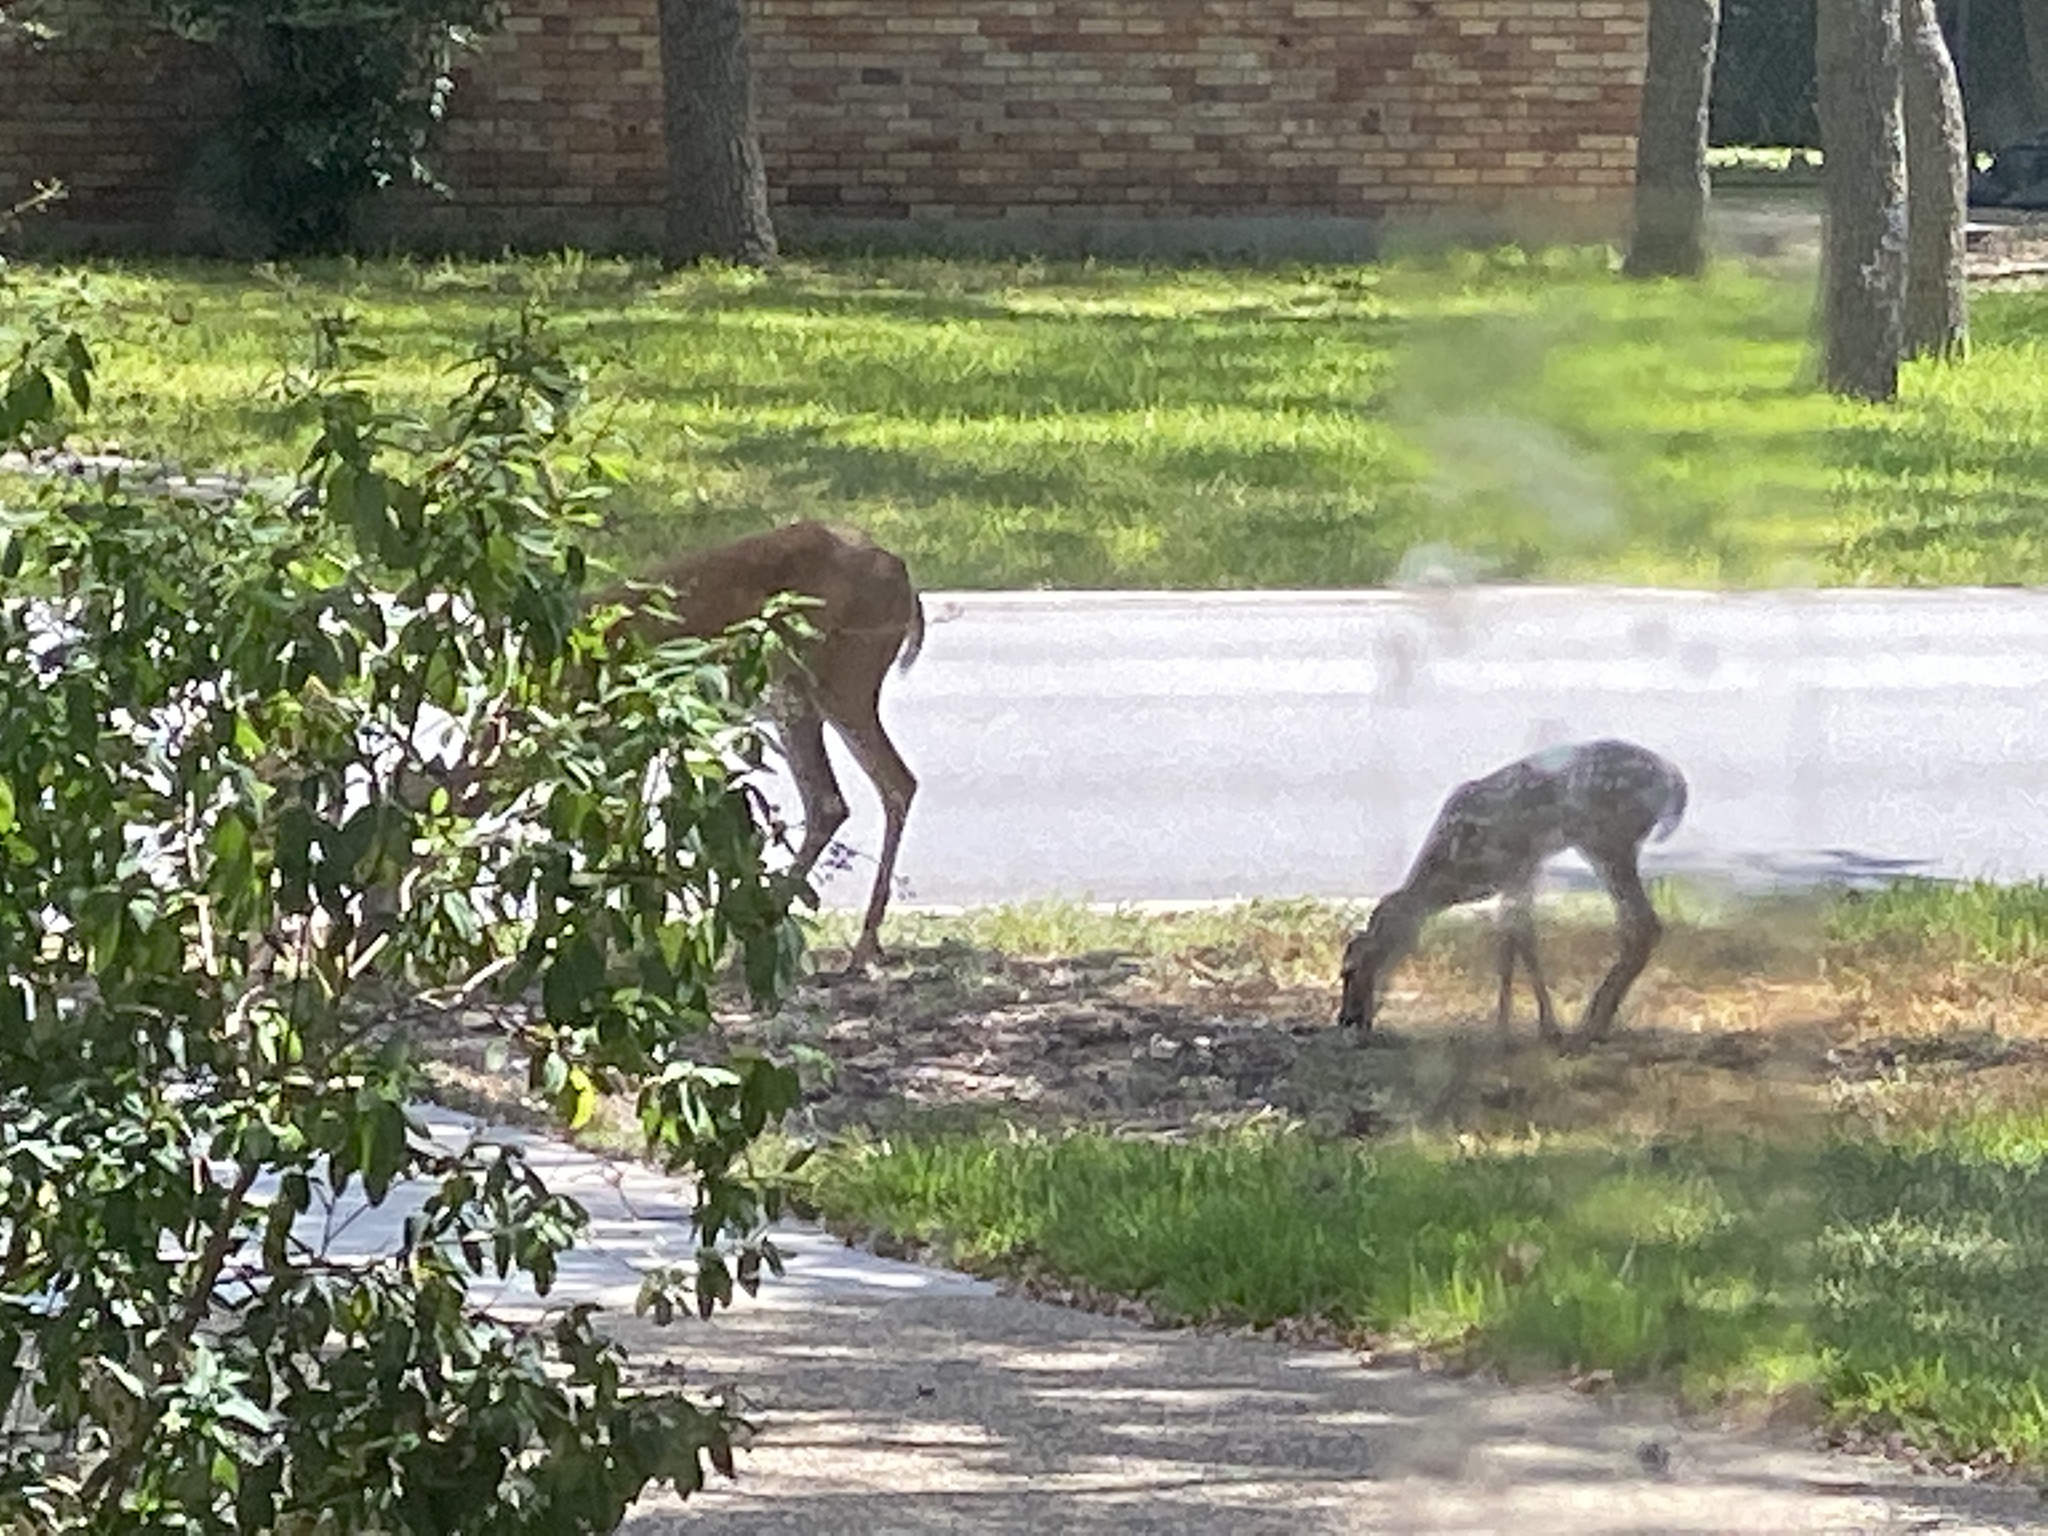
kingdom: Animalia
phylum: Chordata
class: Mammalia
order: Artiodactyla
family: Cervidae
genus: Odocoileus
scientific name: Odocoileus virginianus
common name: White-tailed deer
